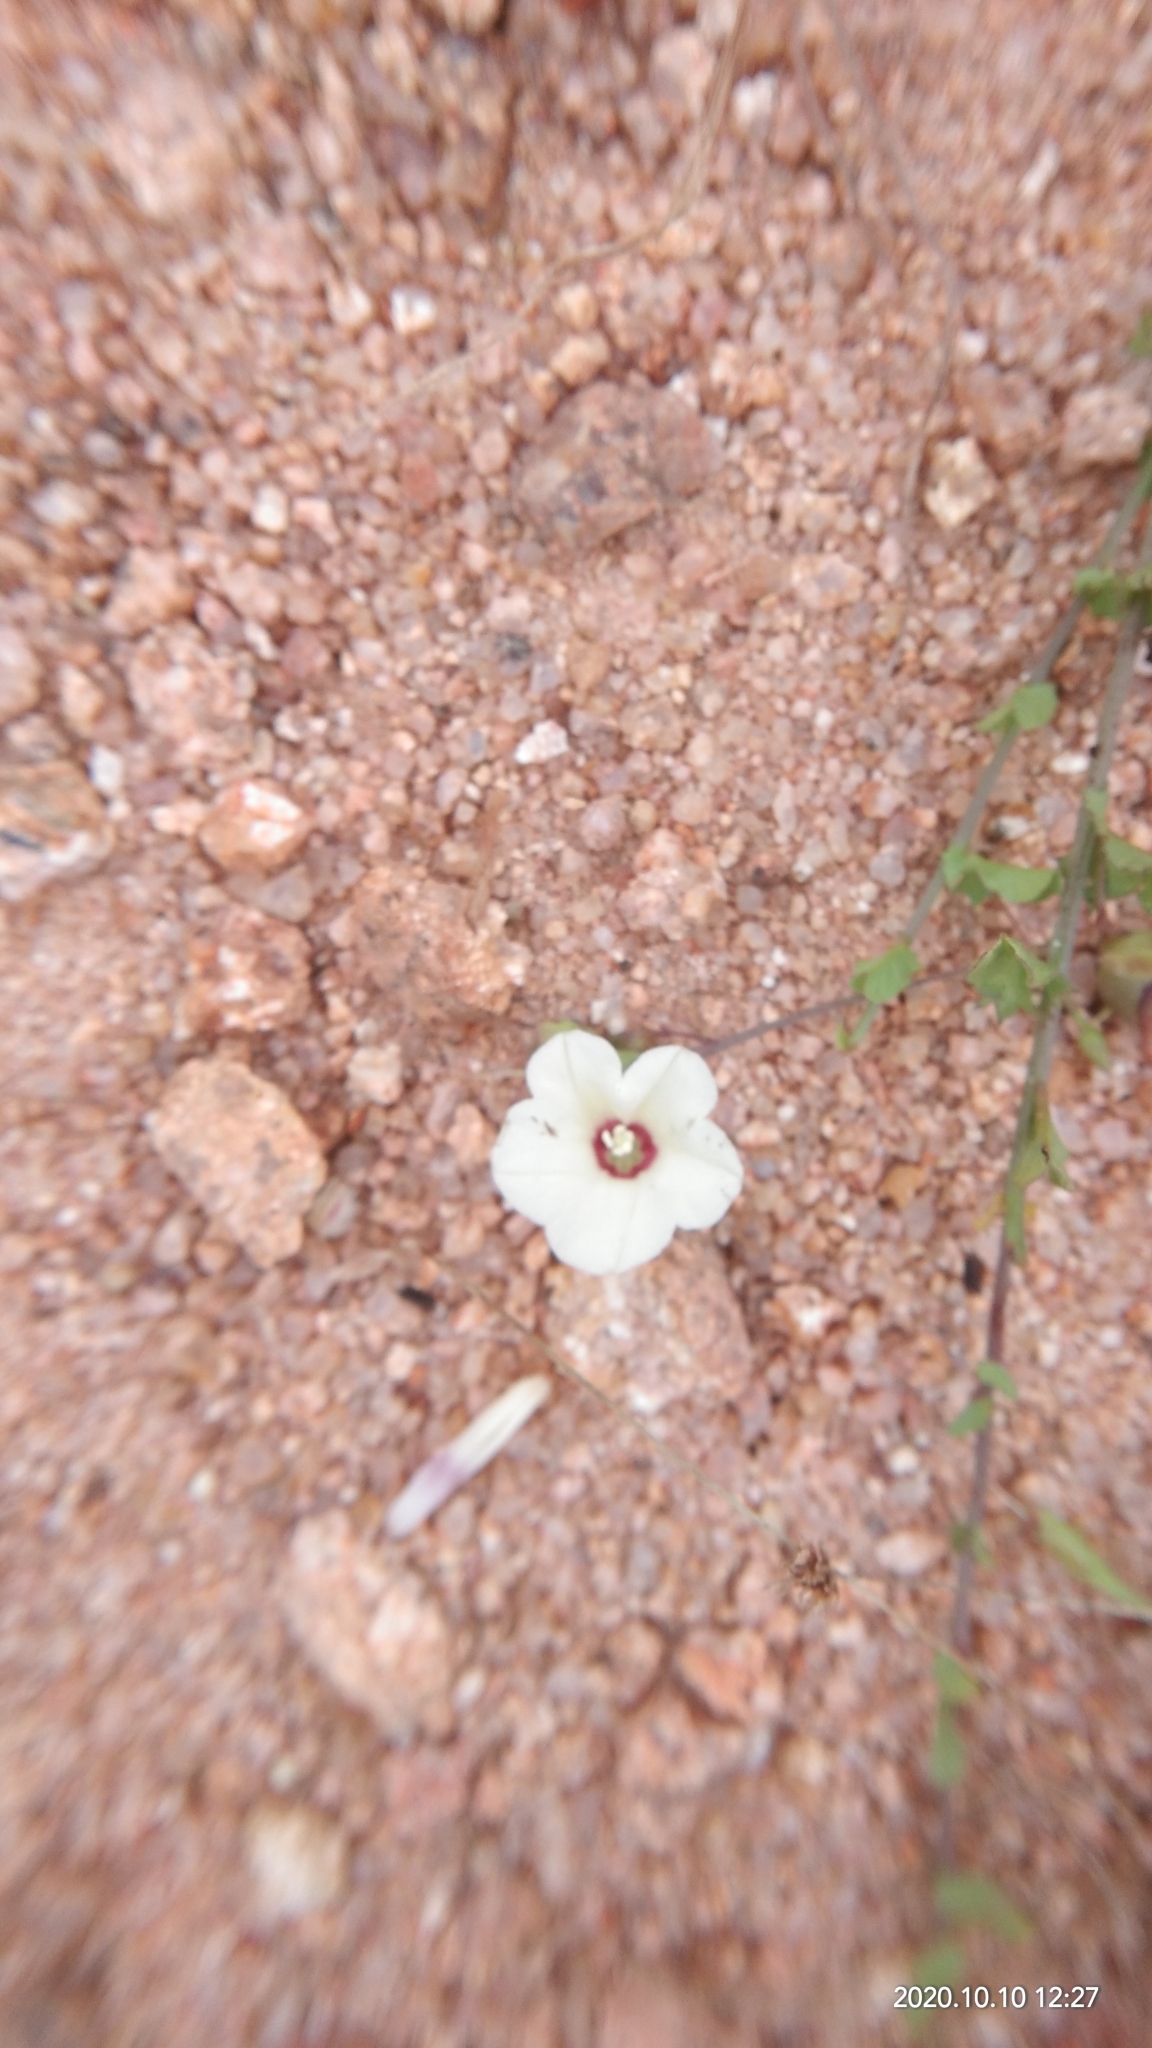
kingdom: Plantae
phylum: Tracheophyta
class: Magnoliopsida
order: Solanales
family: Convolvulaceae
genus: Xenostegia
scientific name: Xenostegia tridentata
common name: African morningvine
